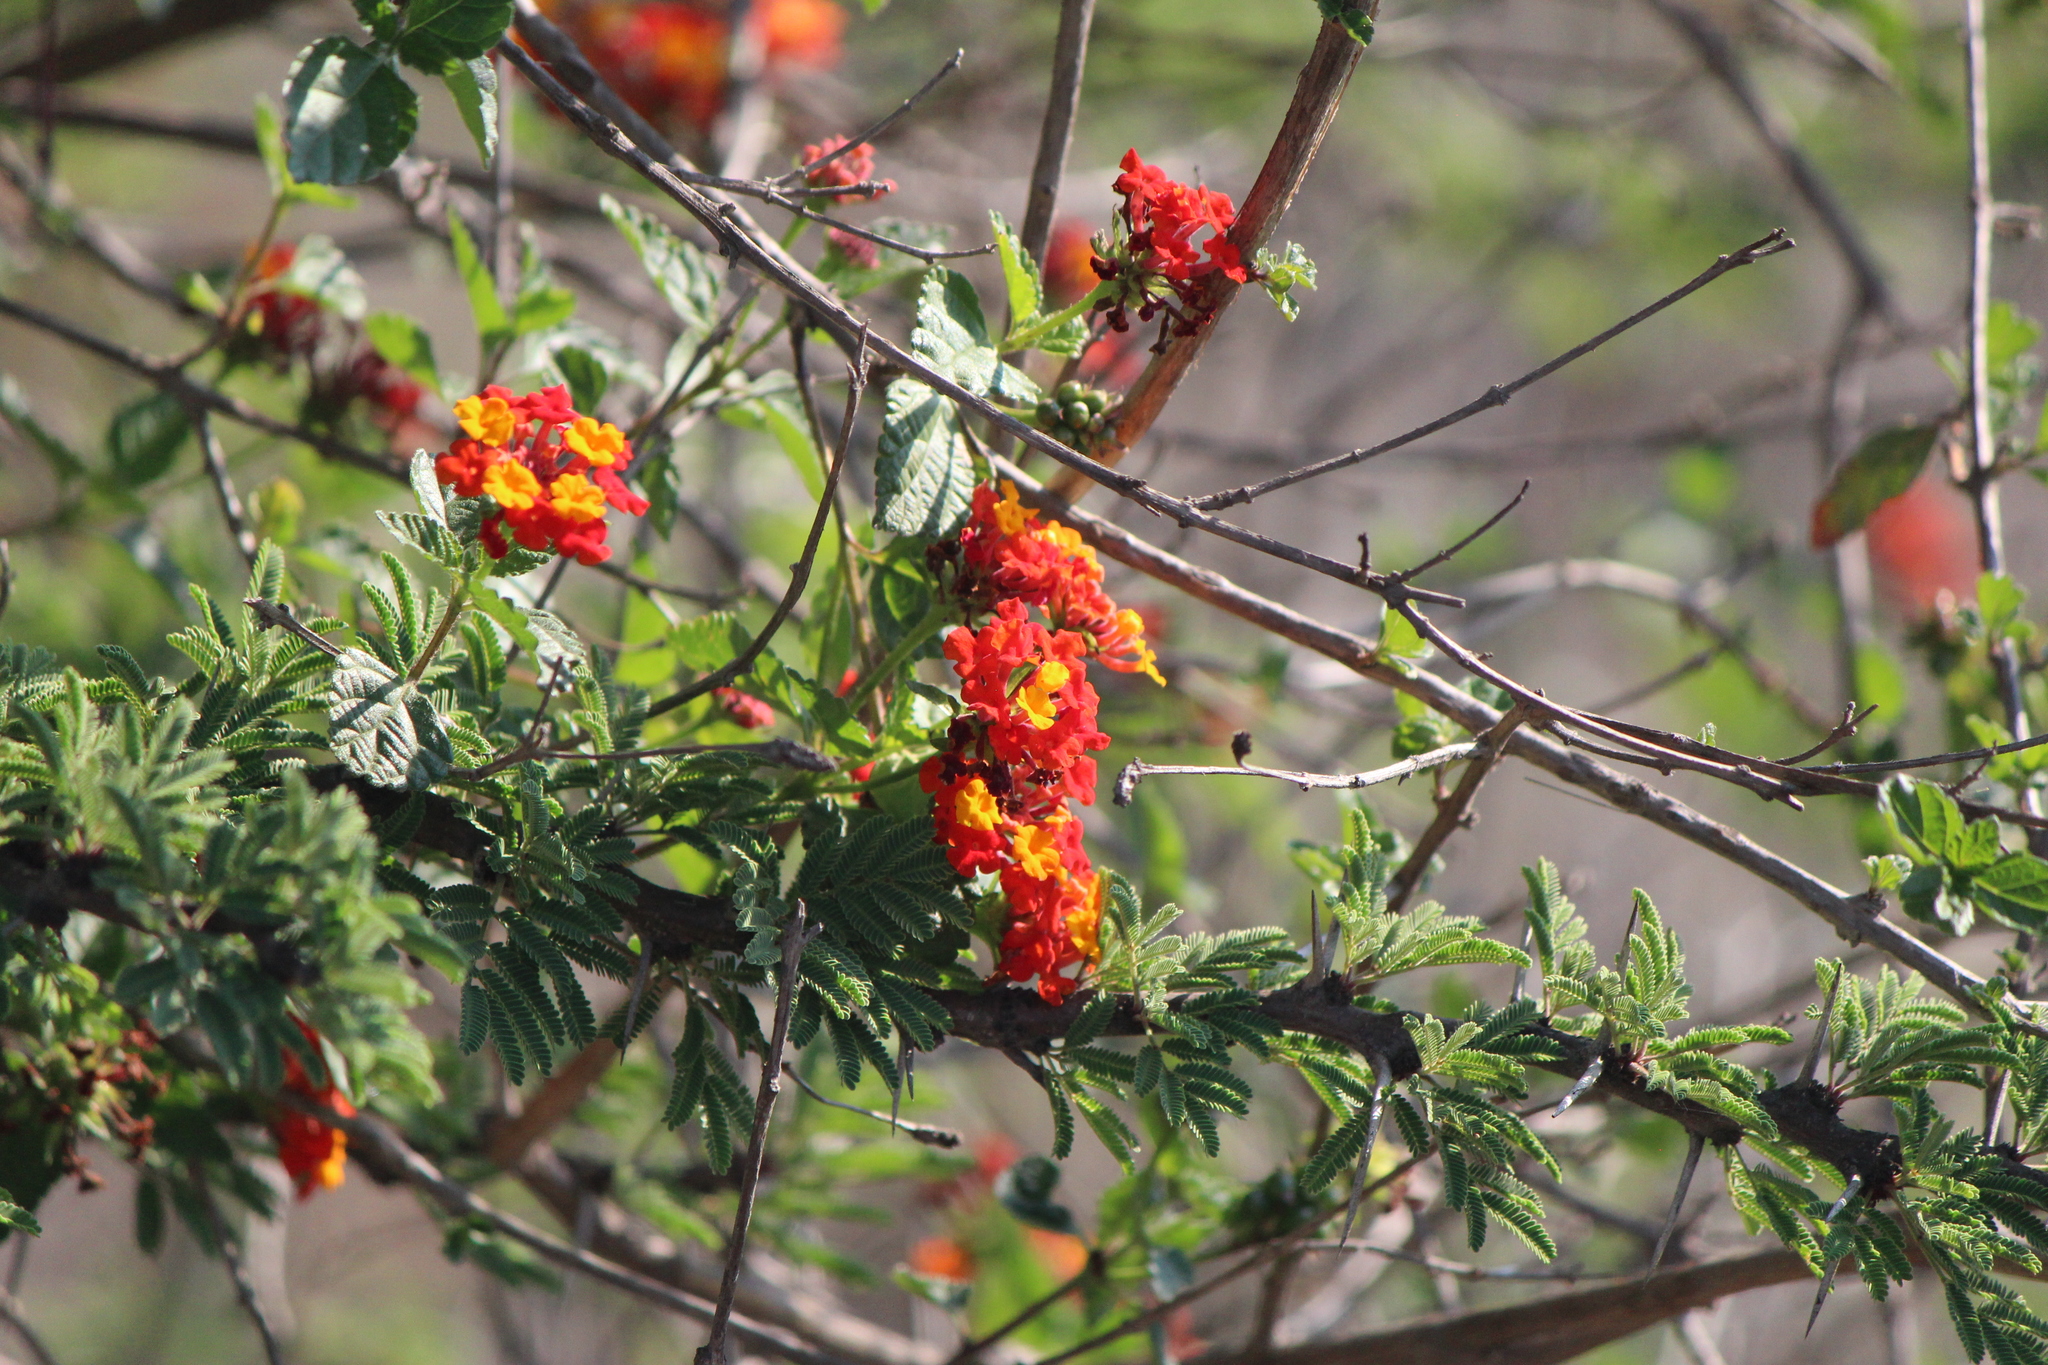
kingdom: Plantae
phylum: Tracheophyta
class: Magnoliopsida
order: Lamiales
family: Verbenaceae
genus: Lantana
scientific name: Lantana camara
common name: Lantana
